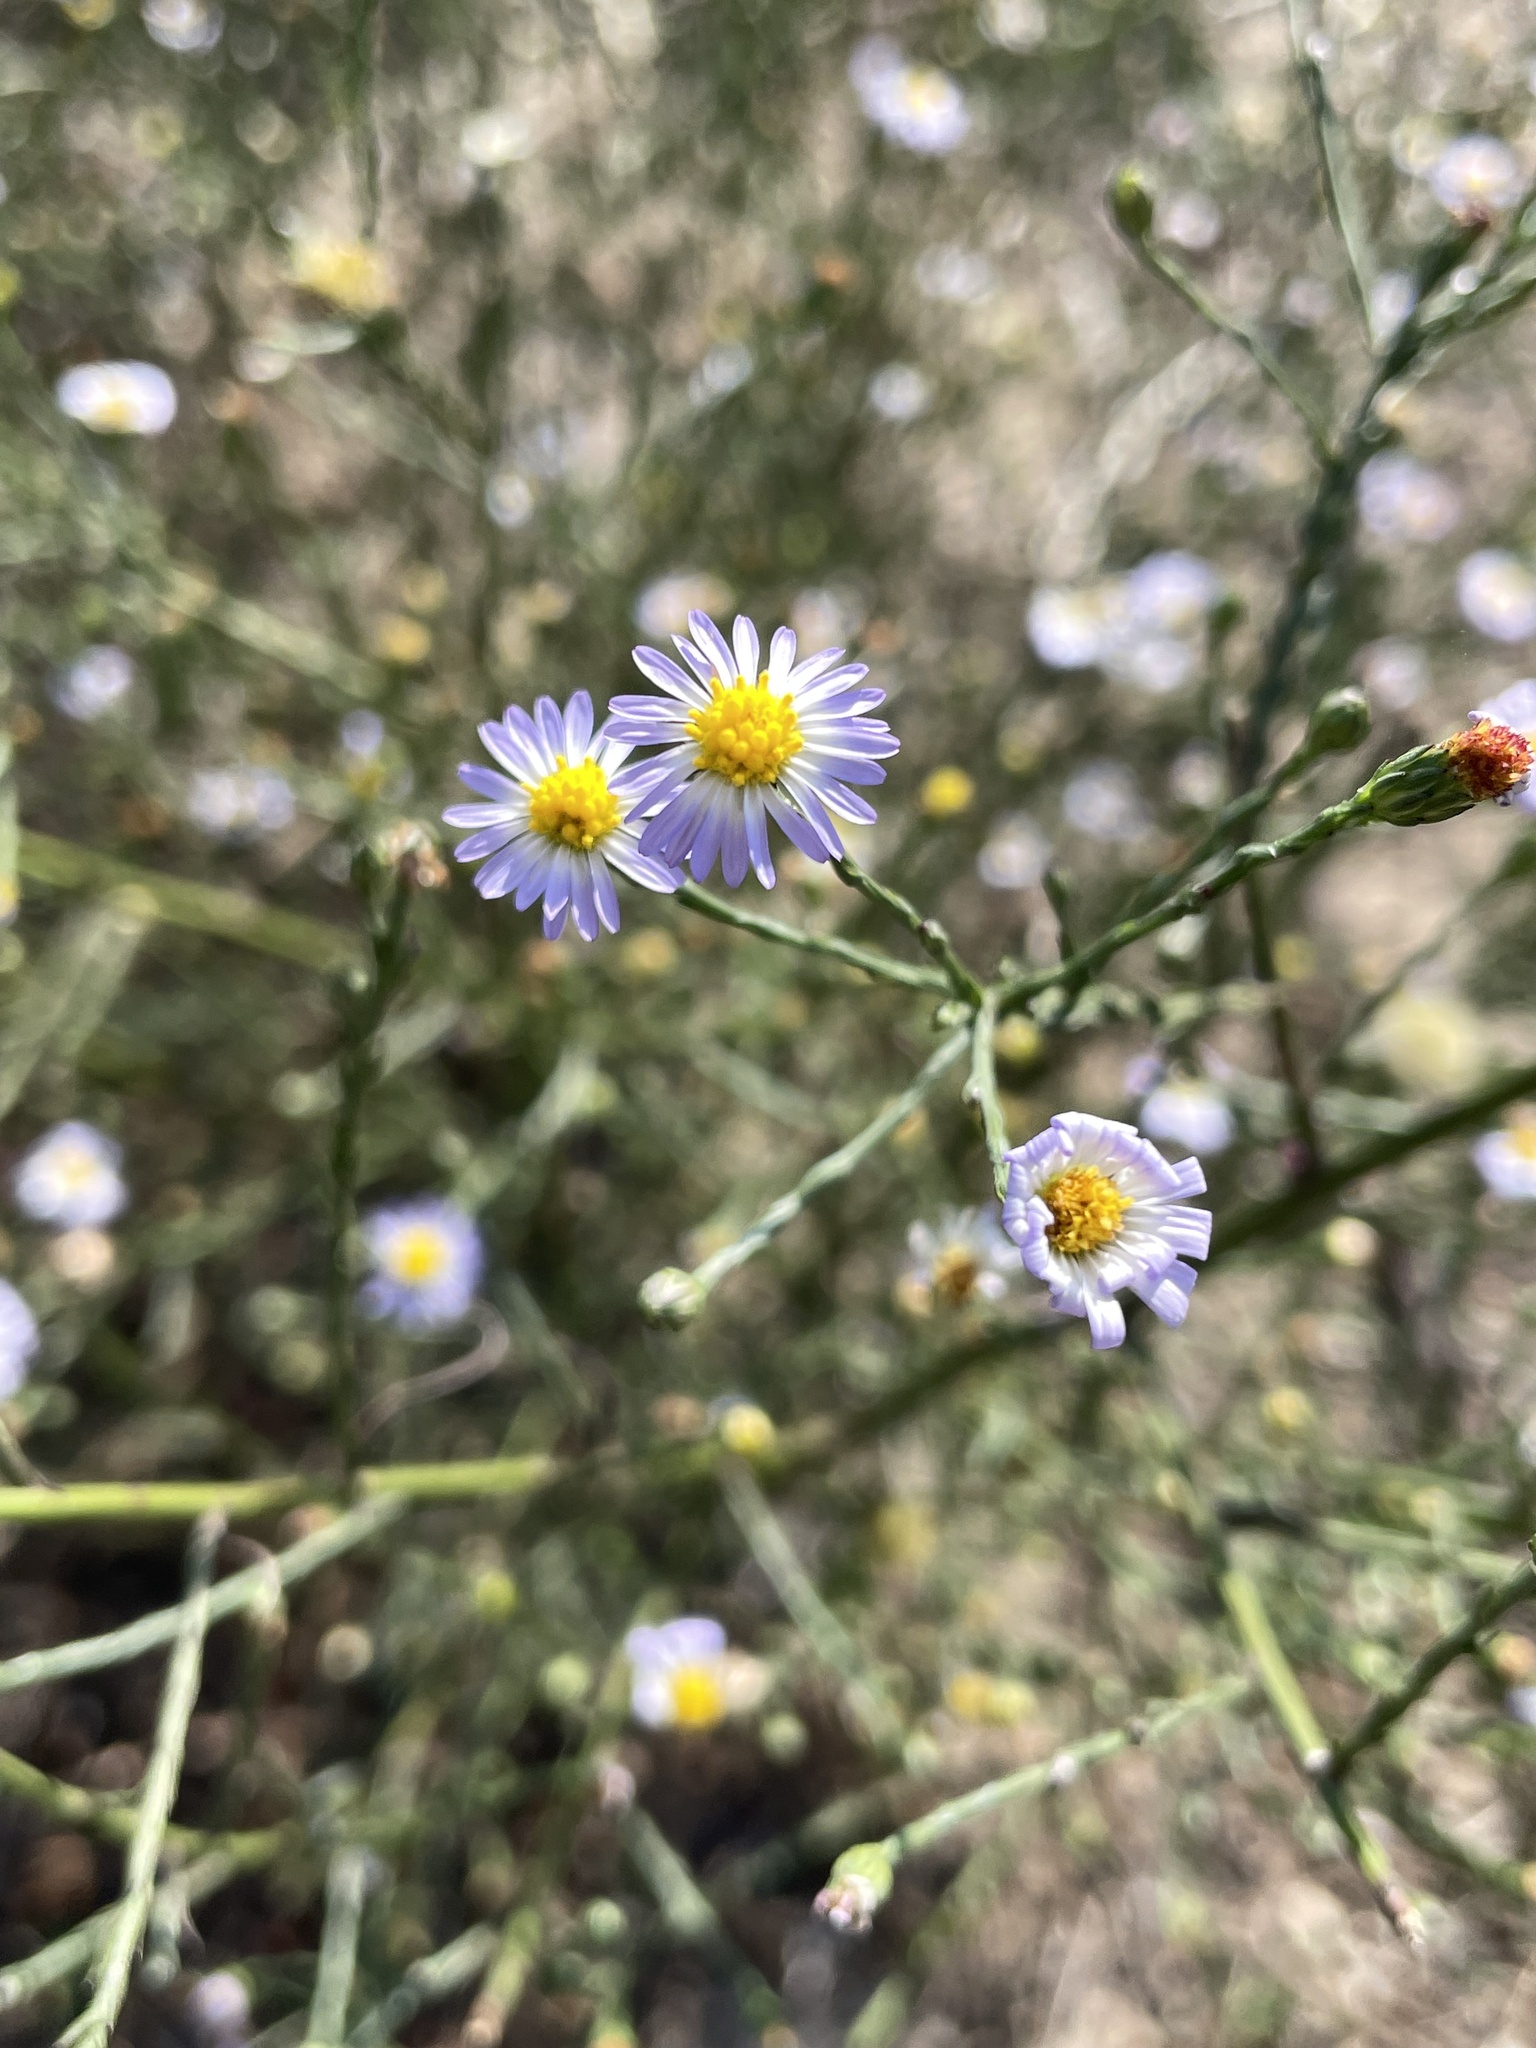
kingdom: Plantae
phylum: Tracheophyta
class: Magnoliopsida
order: Asterales
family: Asteraceae
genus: Symphyotrichum
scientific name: Symphyotrichum divaricatum
